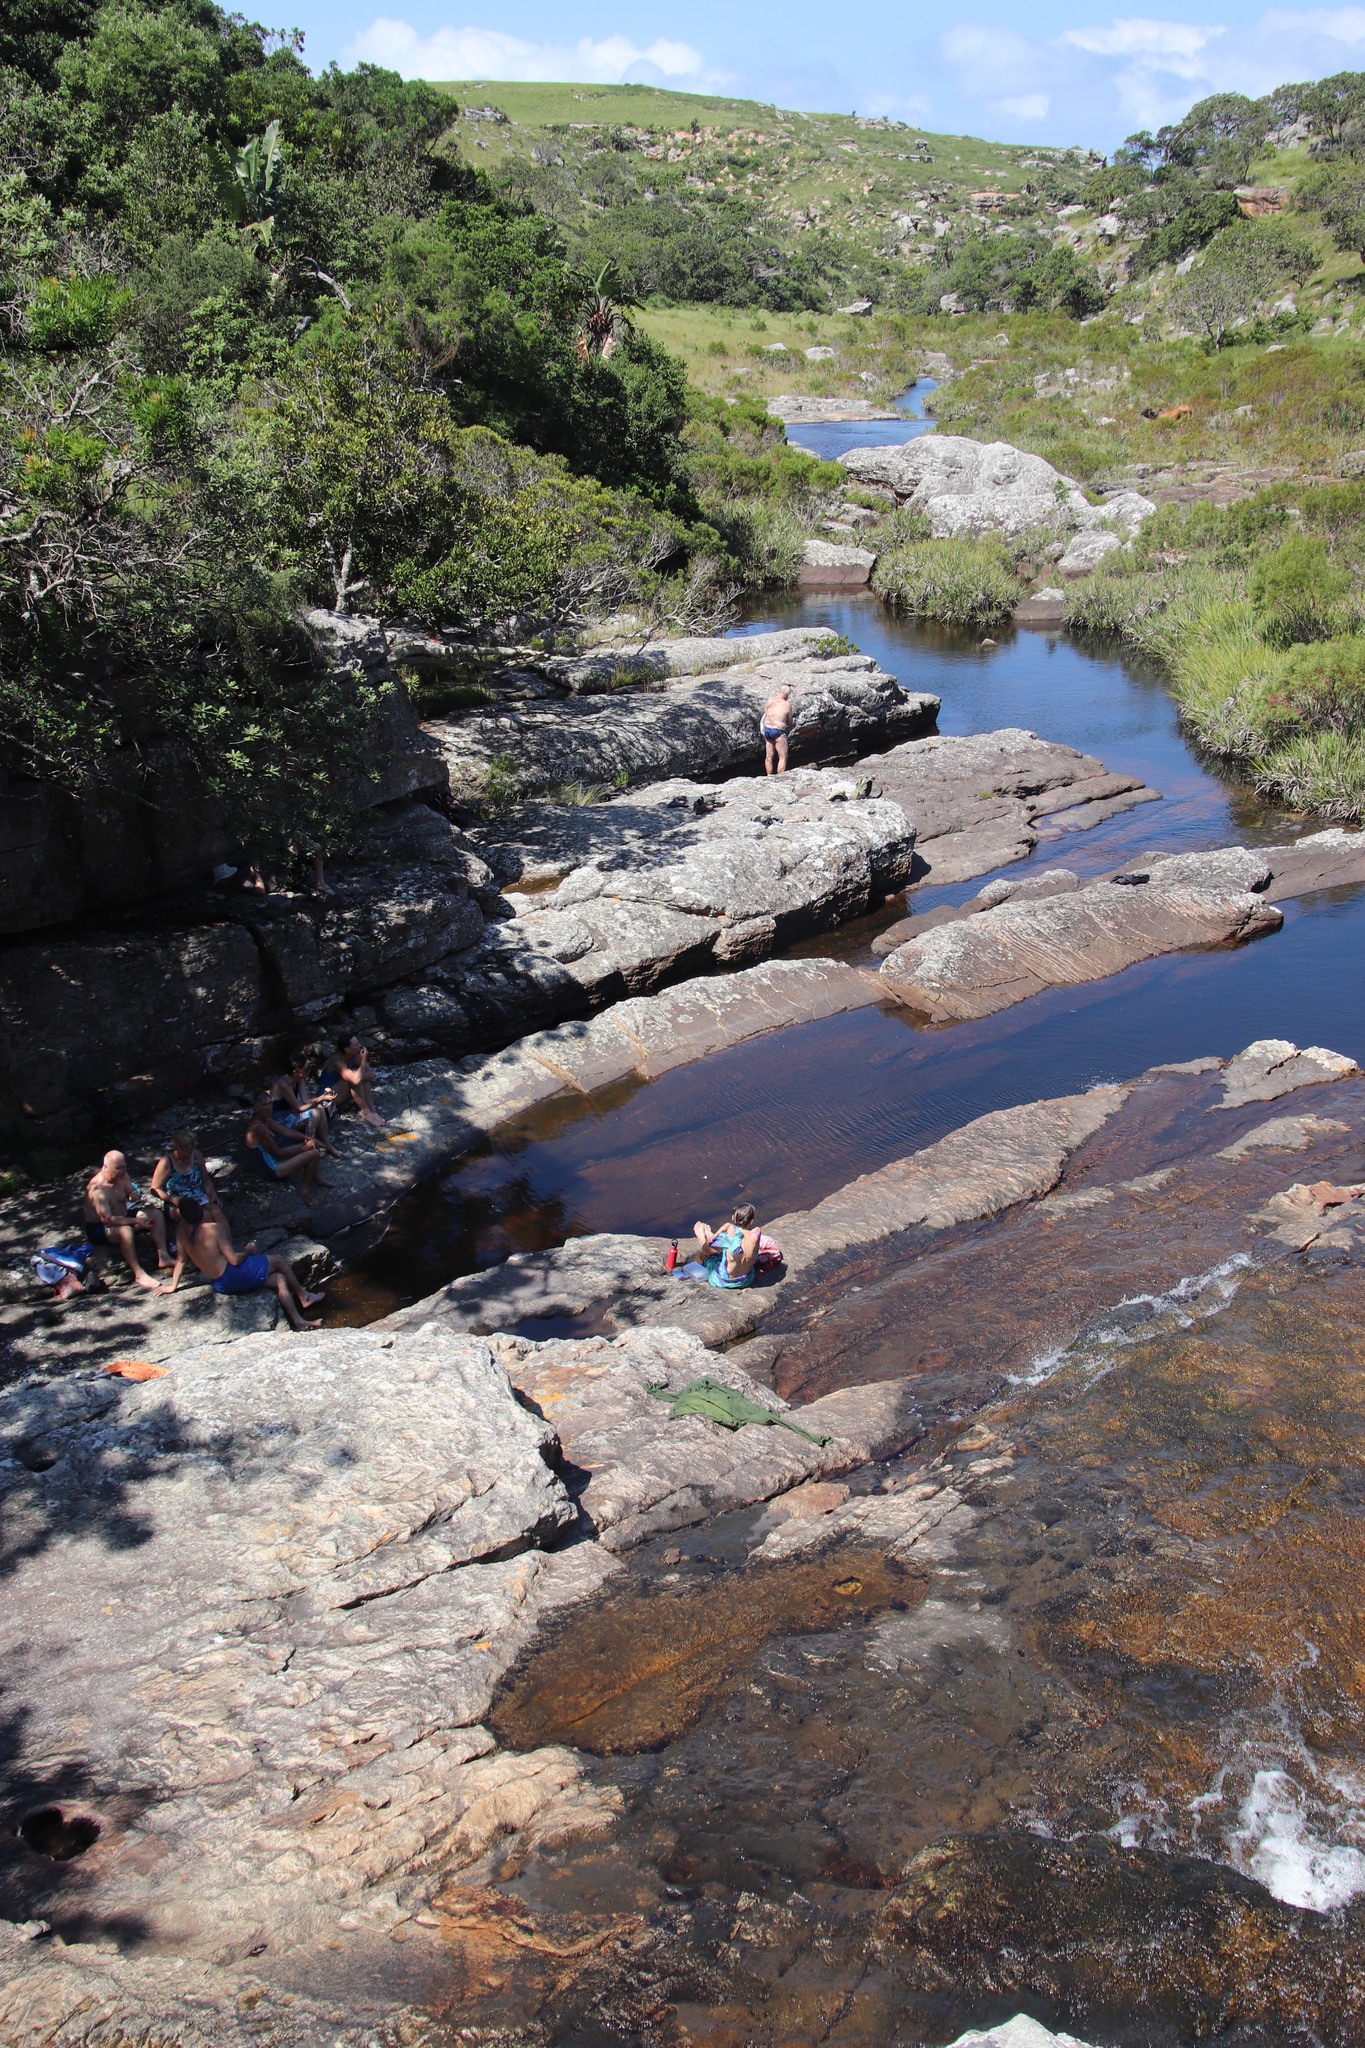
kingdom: Plantae
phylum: Tracheophyta
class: Liliopsida
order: Poales
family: Thurniaceae
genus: Prionium
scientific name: Prionium serratum
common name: Palmiet
